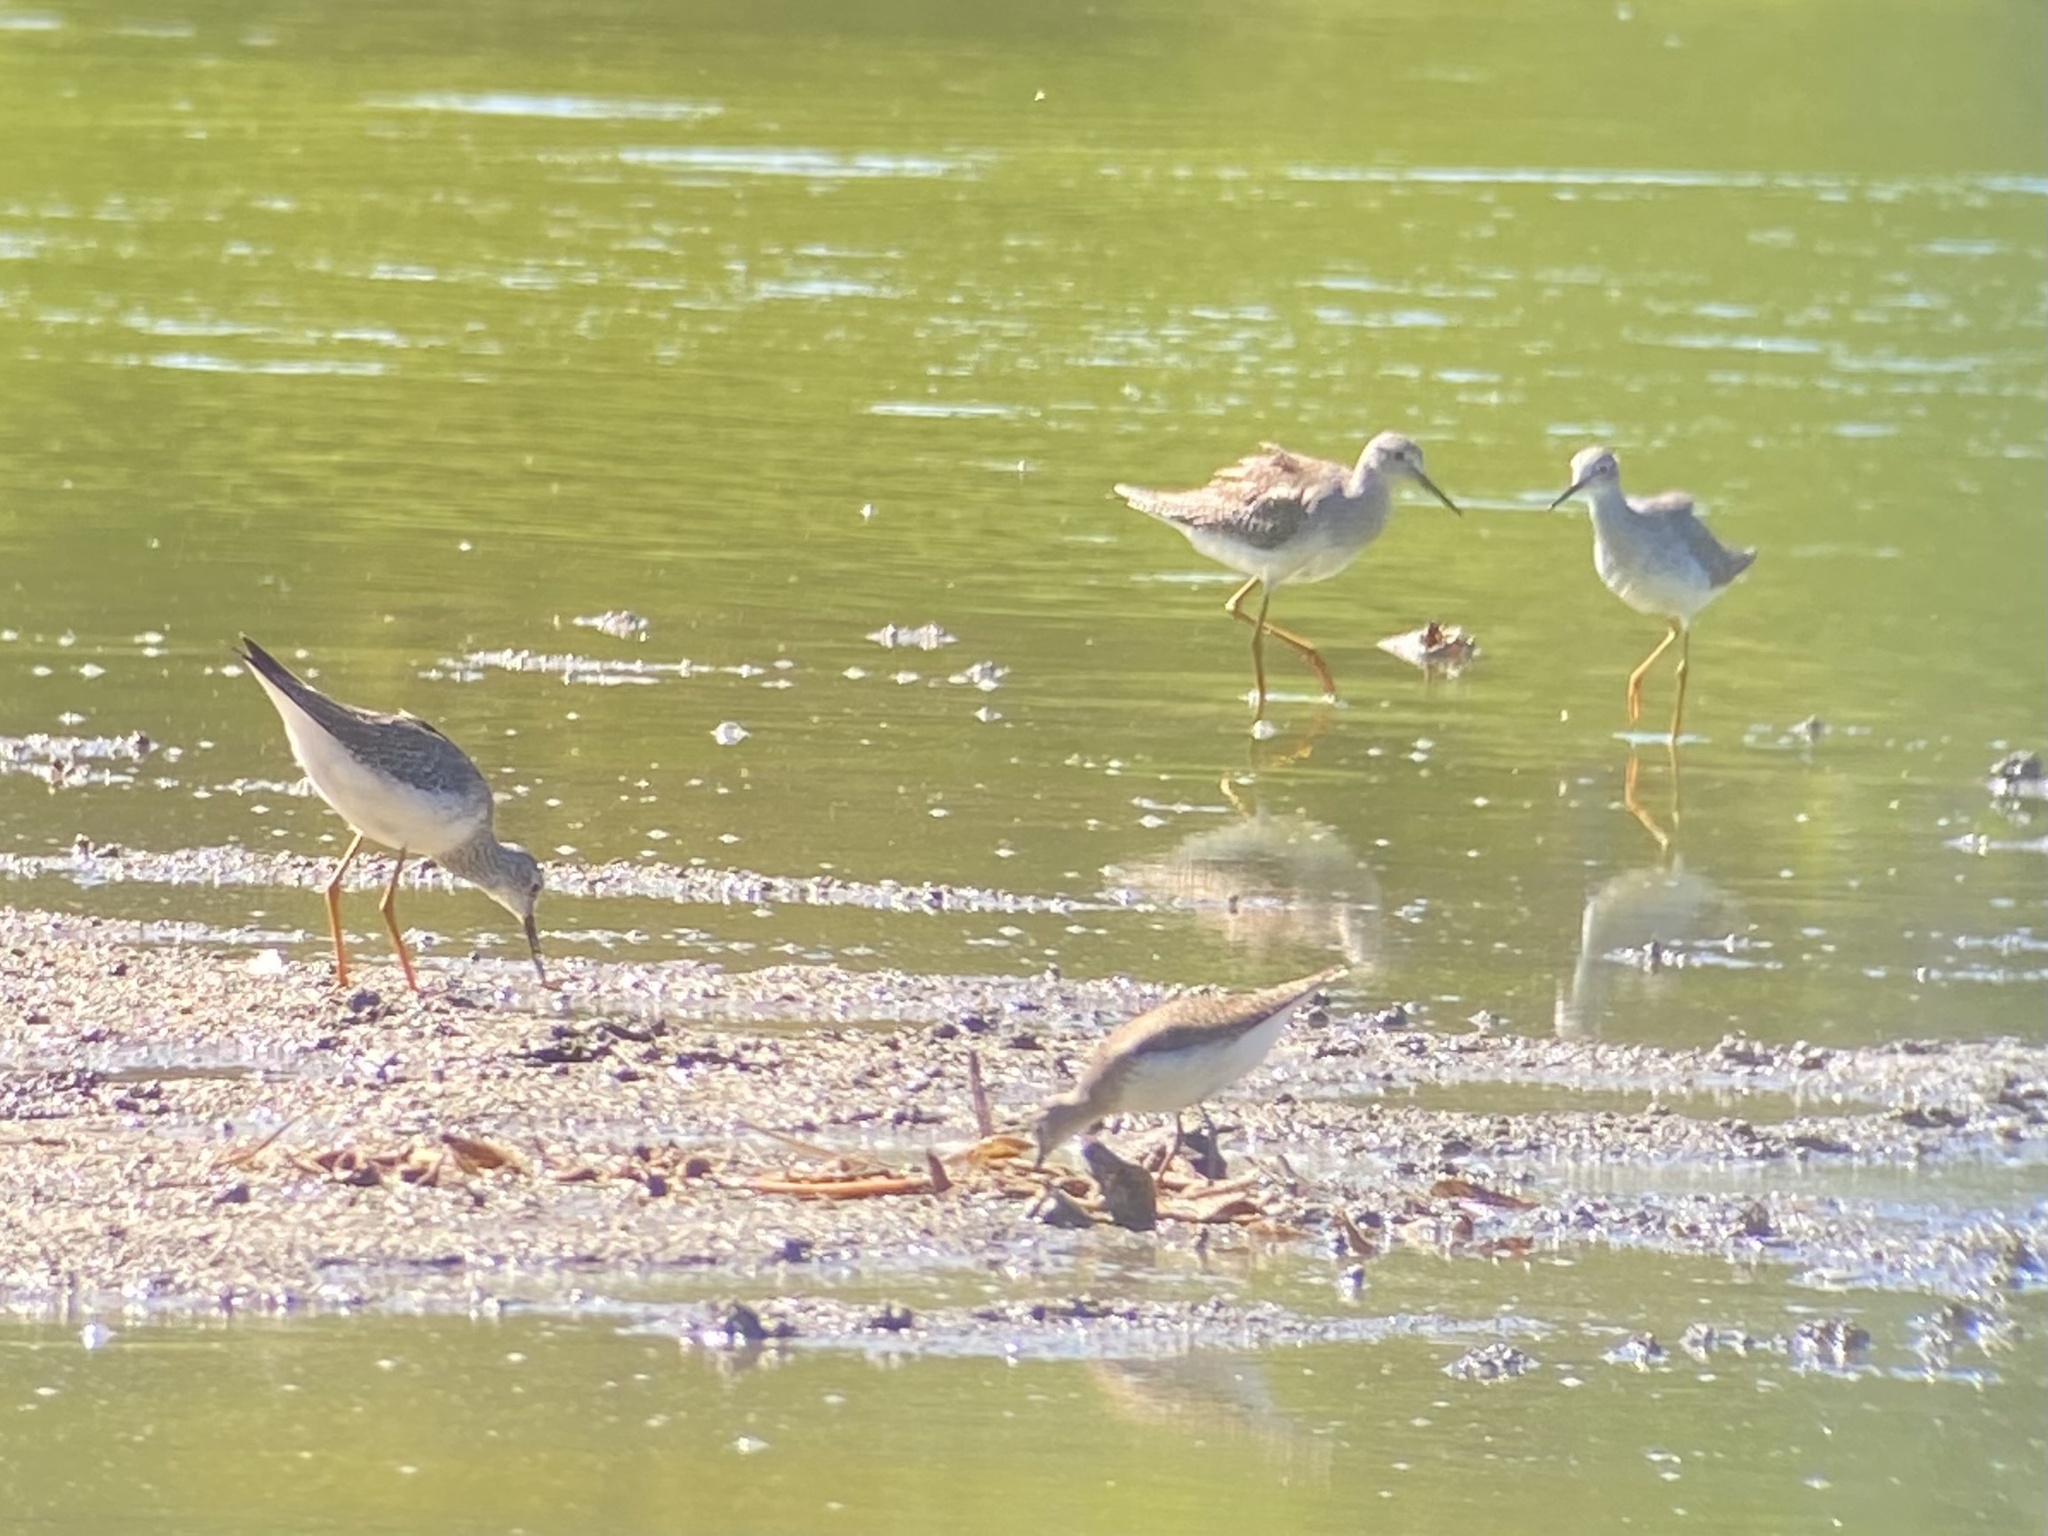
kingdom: Animalia
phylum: Chordata
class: Aves
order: Charadriiformes
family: Scolopacidae
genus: Tringa
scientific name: Tringa flavipes
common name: Lesser yellowlegs
